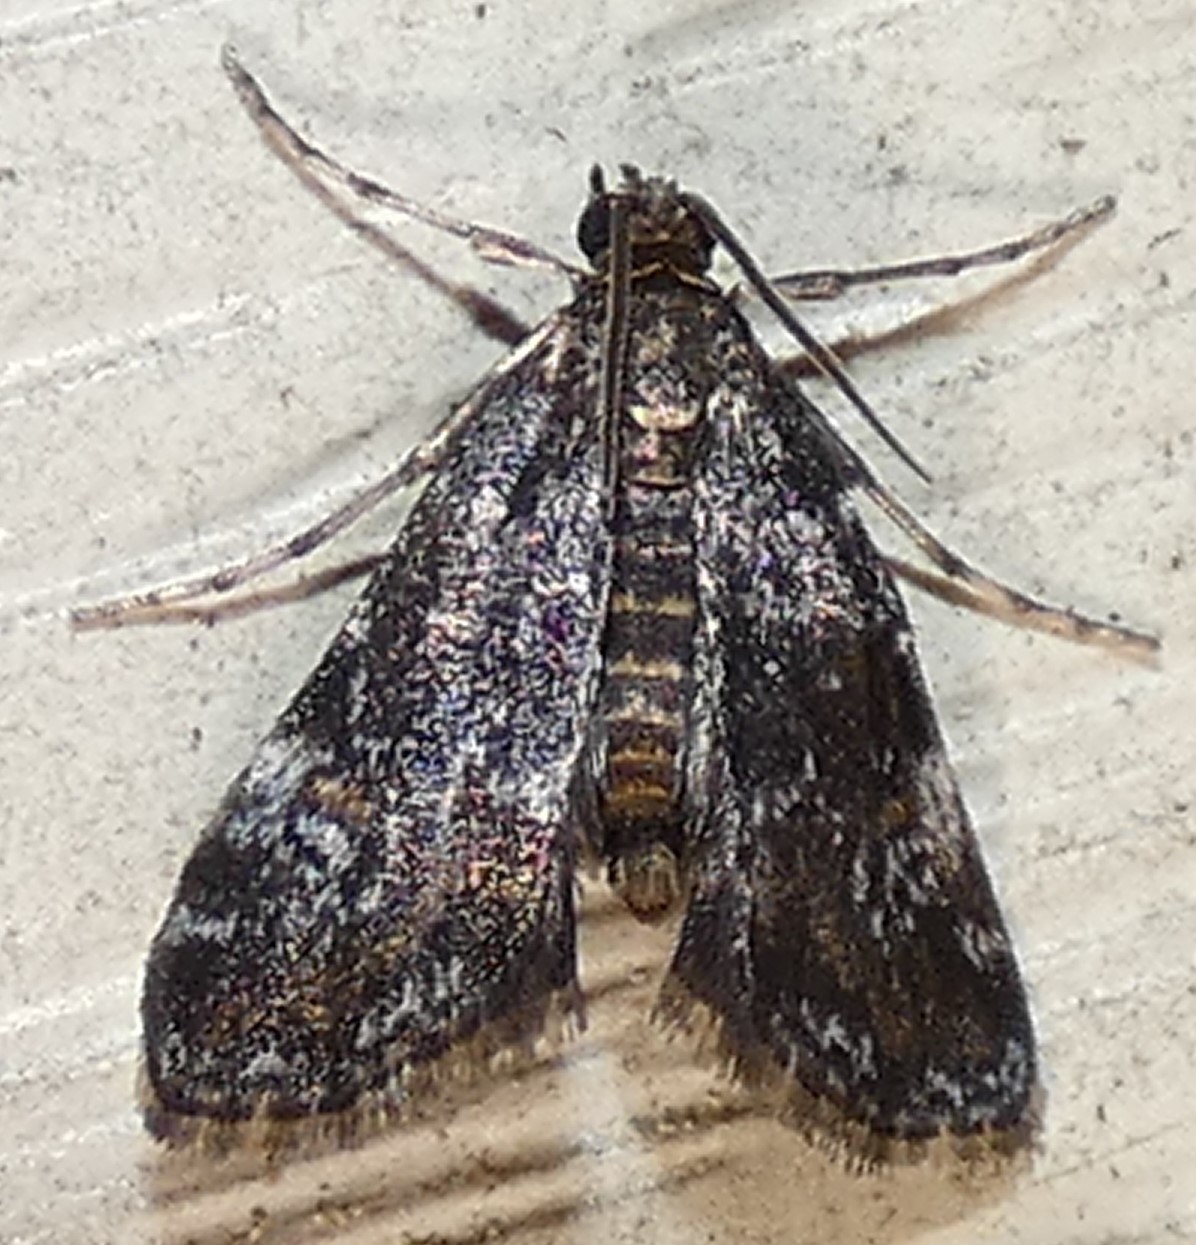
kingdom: Animalia
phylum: Arthropoda
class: Insecta
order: Lepidoptera
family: Crambidae
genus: Elophila
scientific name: Elophila obliteralis
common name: Waterlily leafcutter moth
